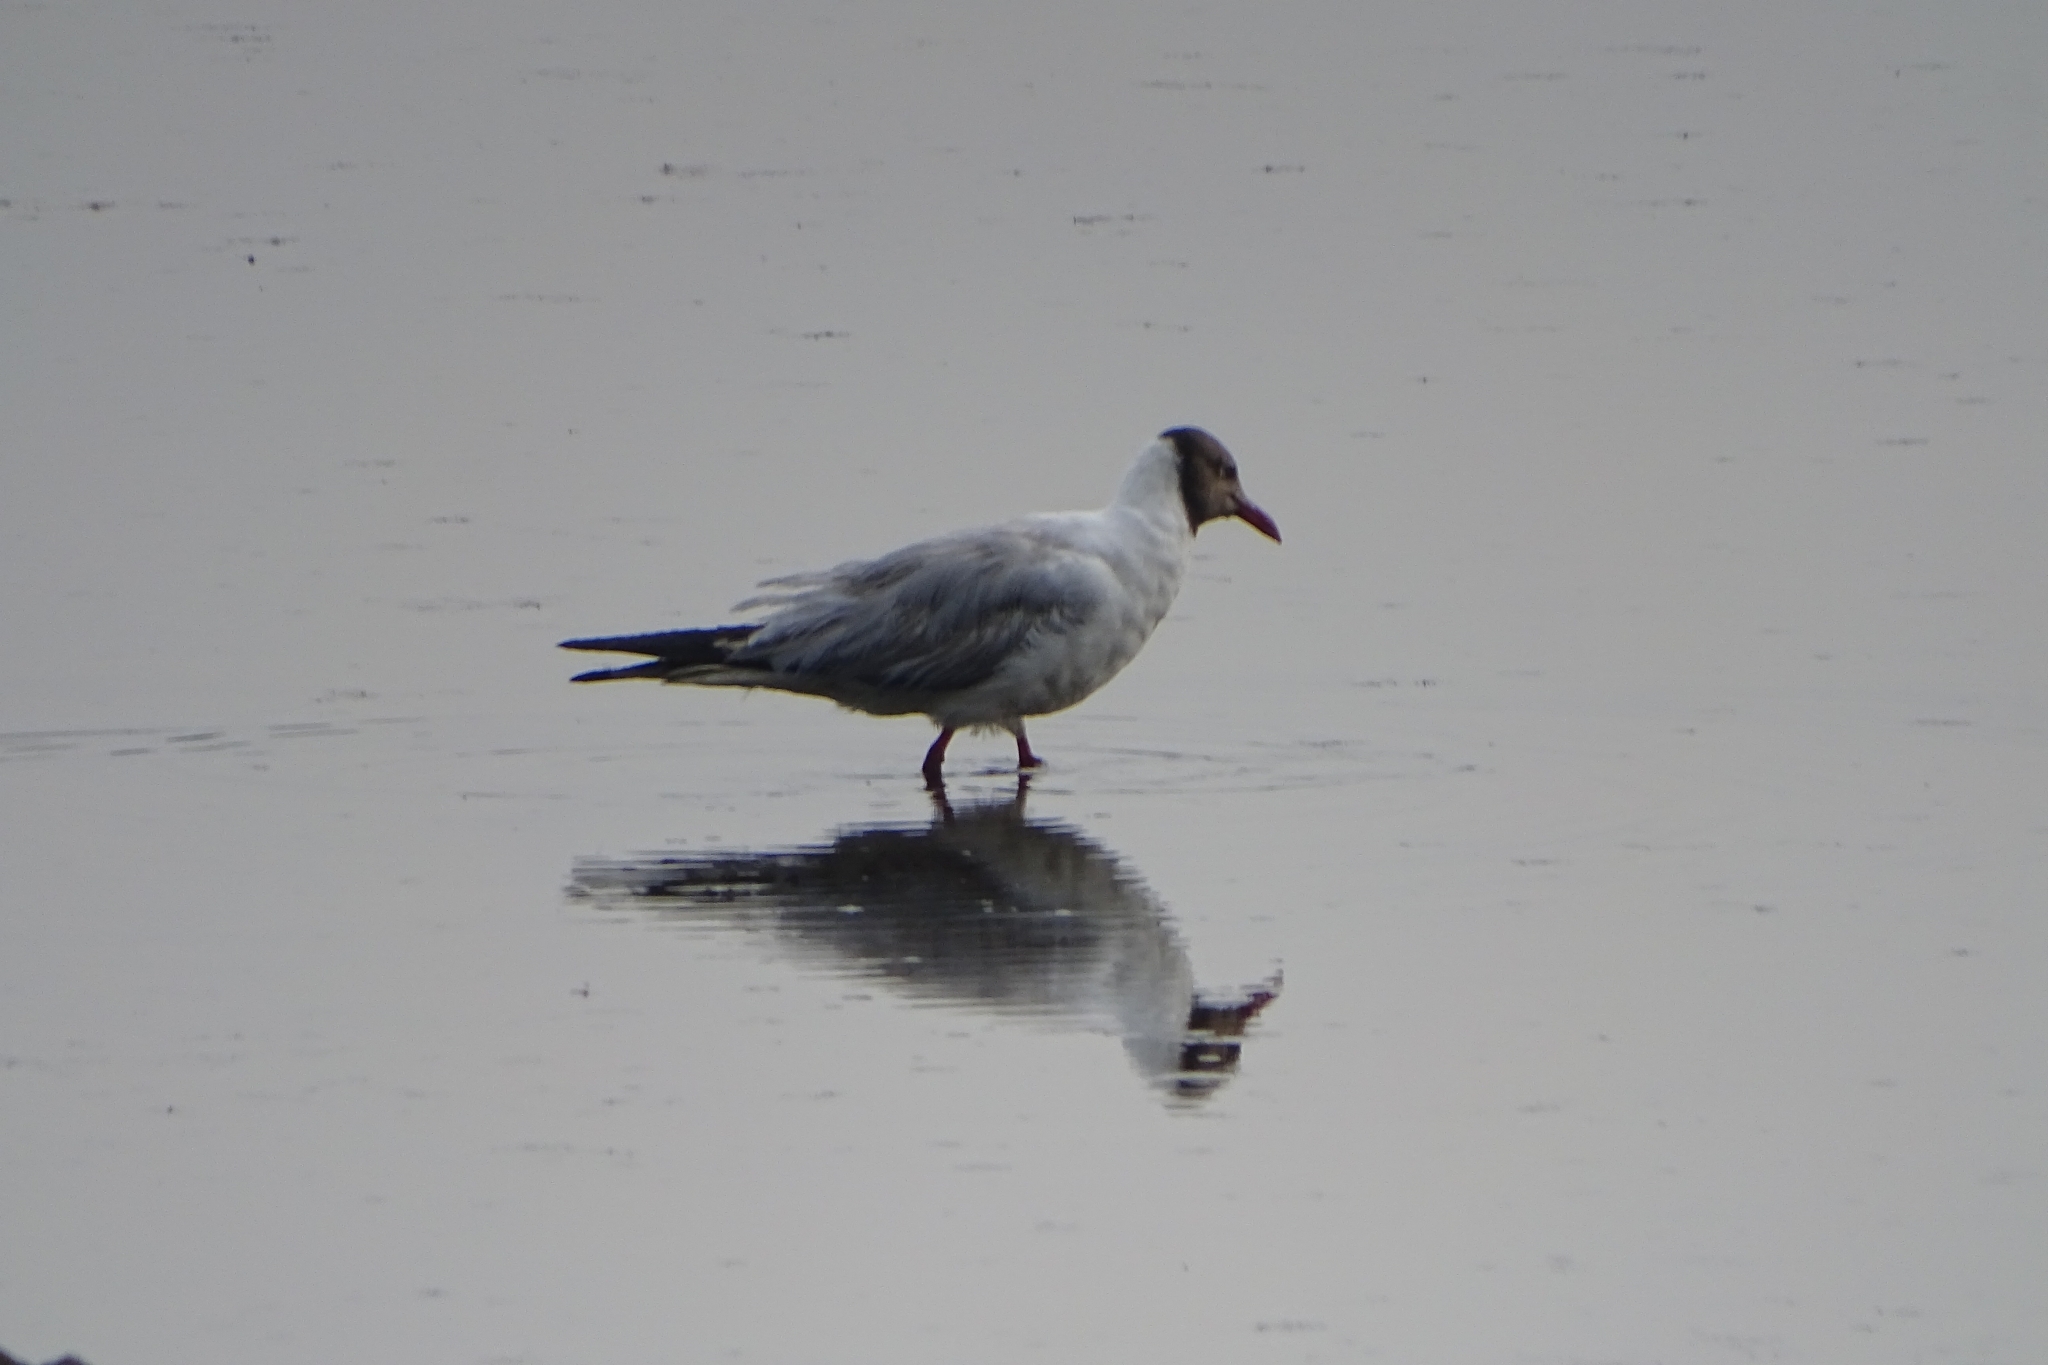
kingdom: Animalia
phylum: Chordata
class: Aves
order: Charadriiformes
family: Laridae
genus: Chroicocephalus
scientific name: Chroicocephalus brunnicephalus
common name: Brown-headed gull
